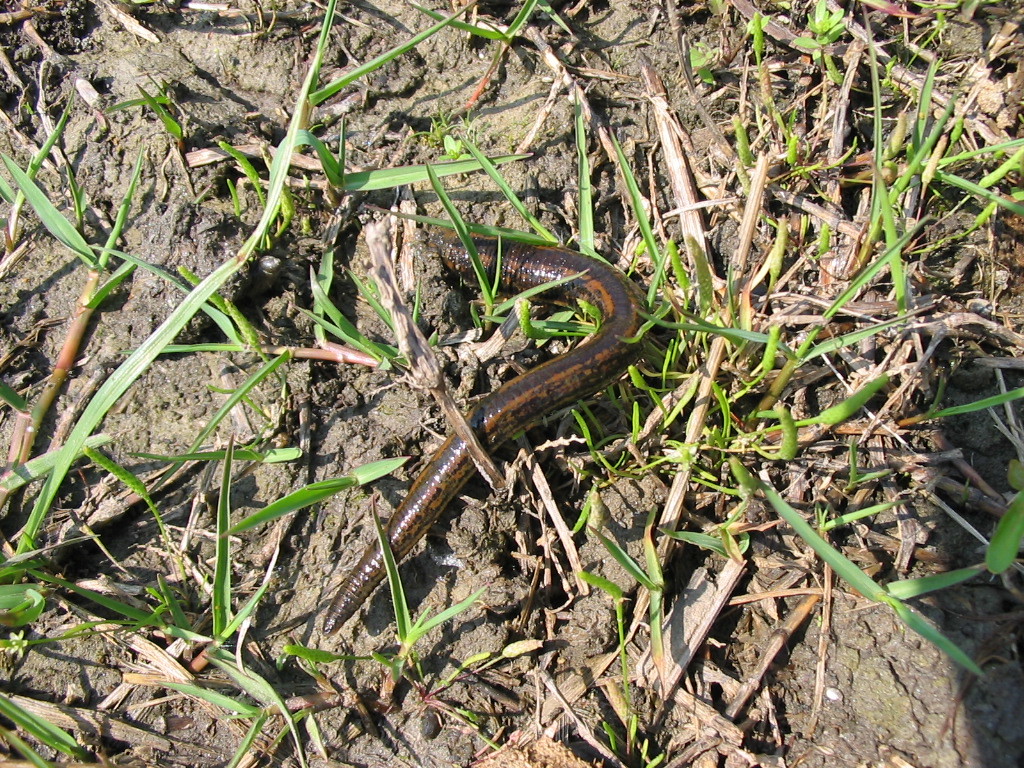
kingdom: Animalia
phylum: Annelida
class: Clitellata
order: Arhynchobdellida
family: Hirudinidae
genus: Hirudo
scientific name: Hirudo verbana
